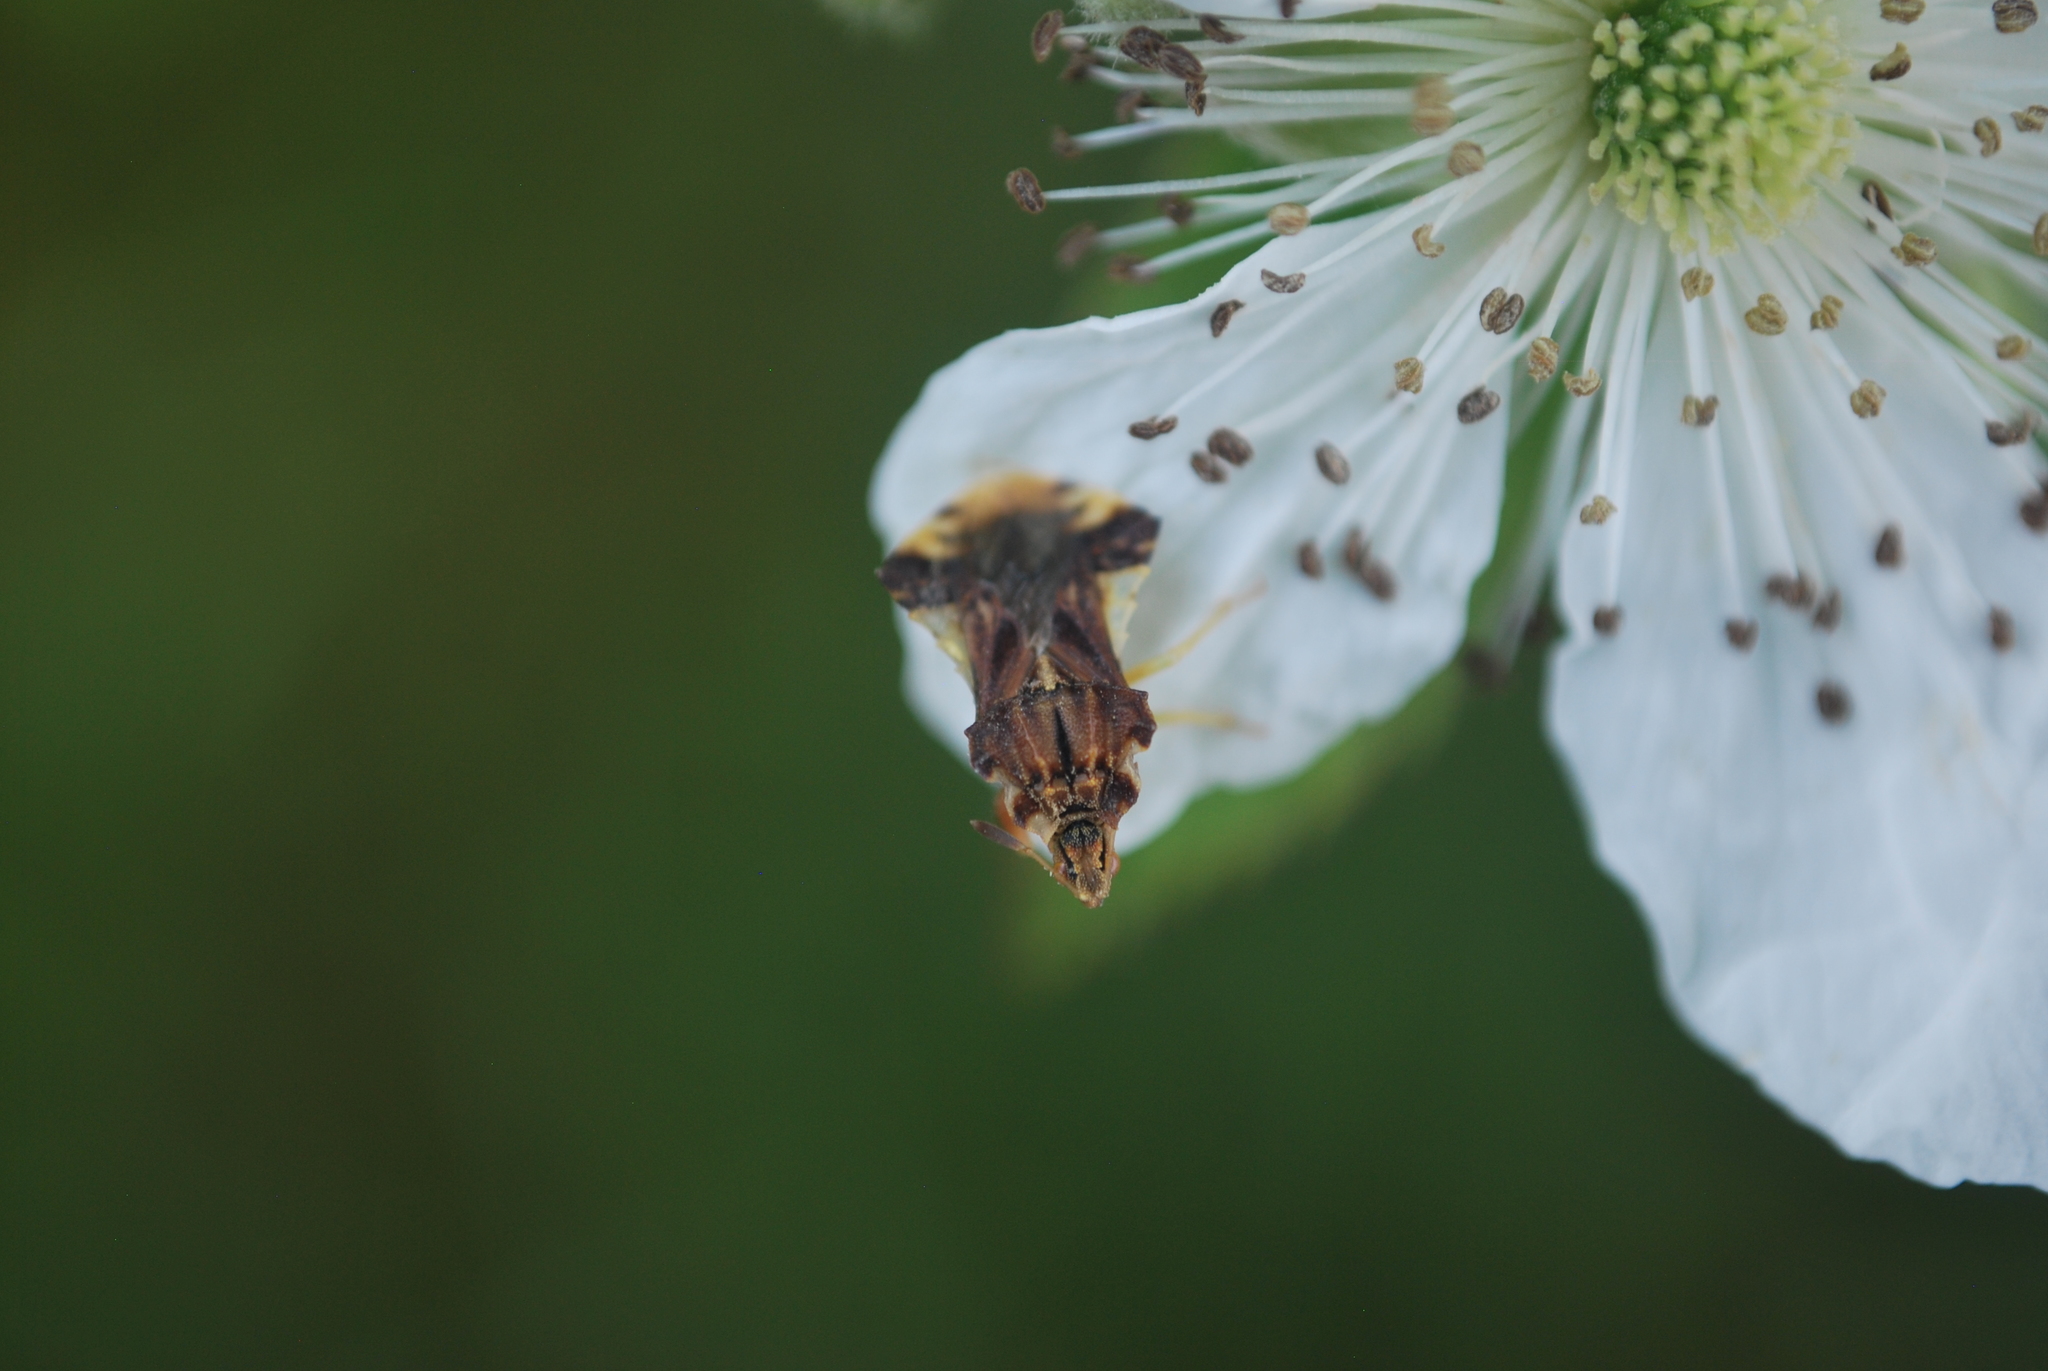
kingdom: Animalia
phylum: Arthropoda
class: Insecta
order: Hemiptera
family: Reduviidae
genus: Phymata
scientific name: Phymata fasciata
